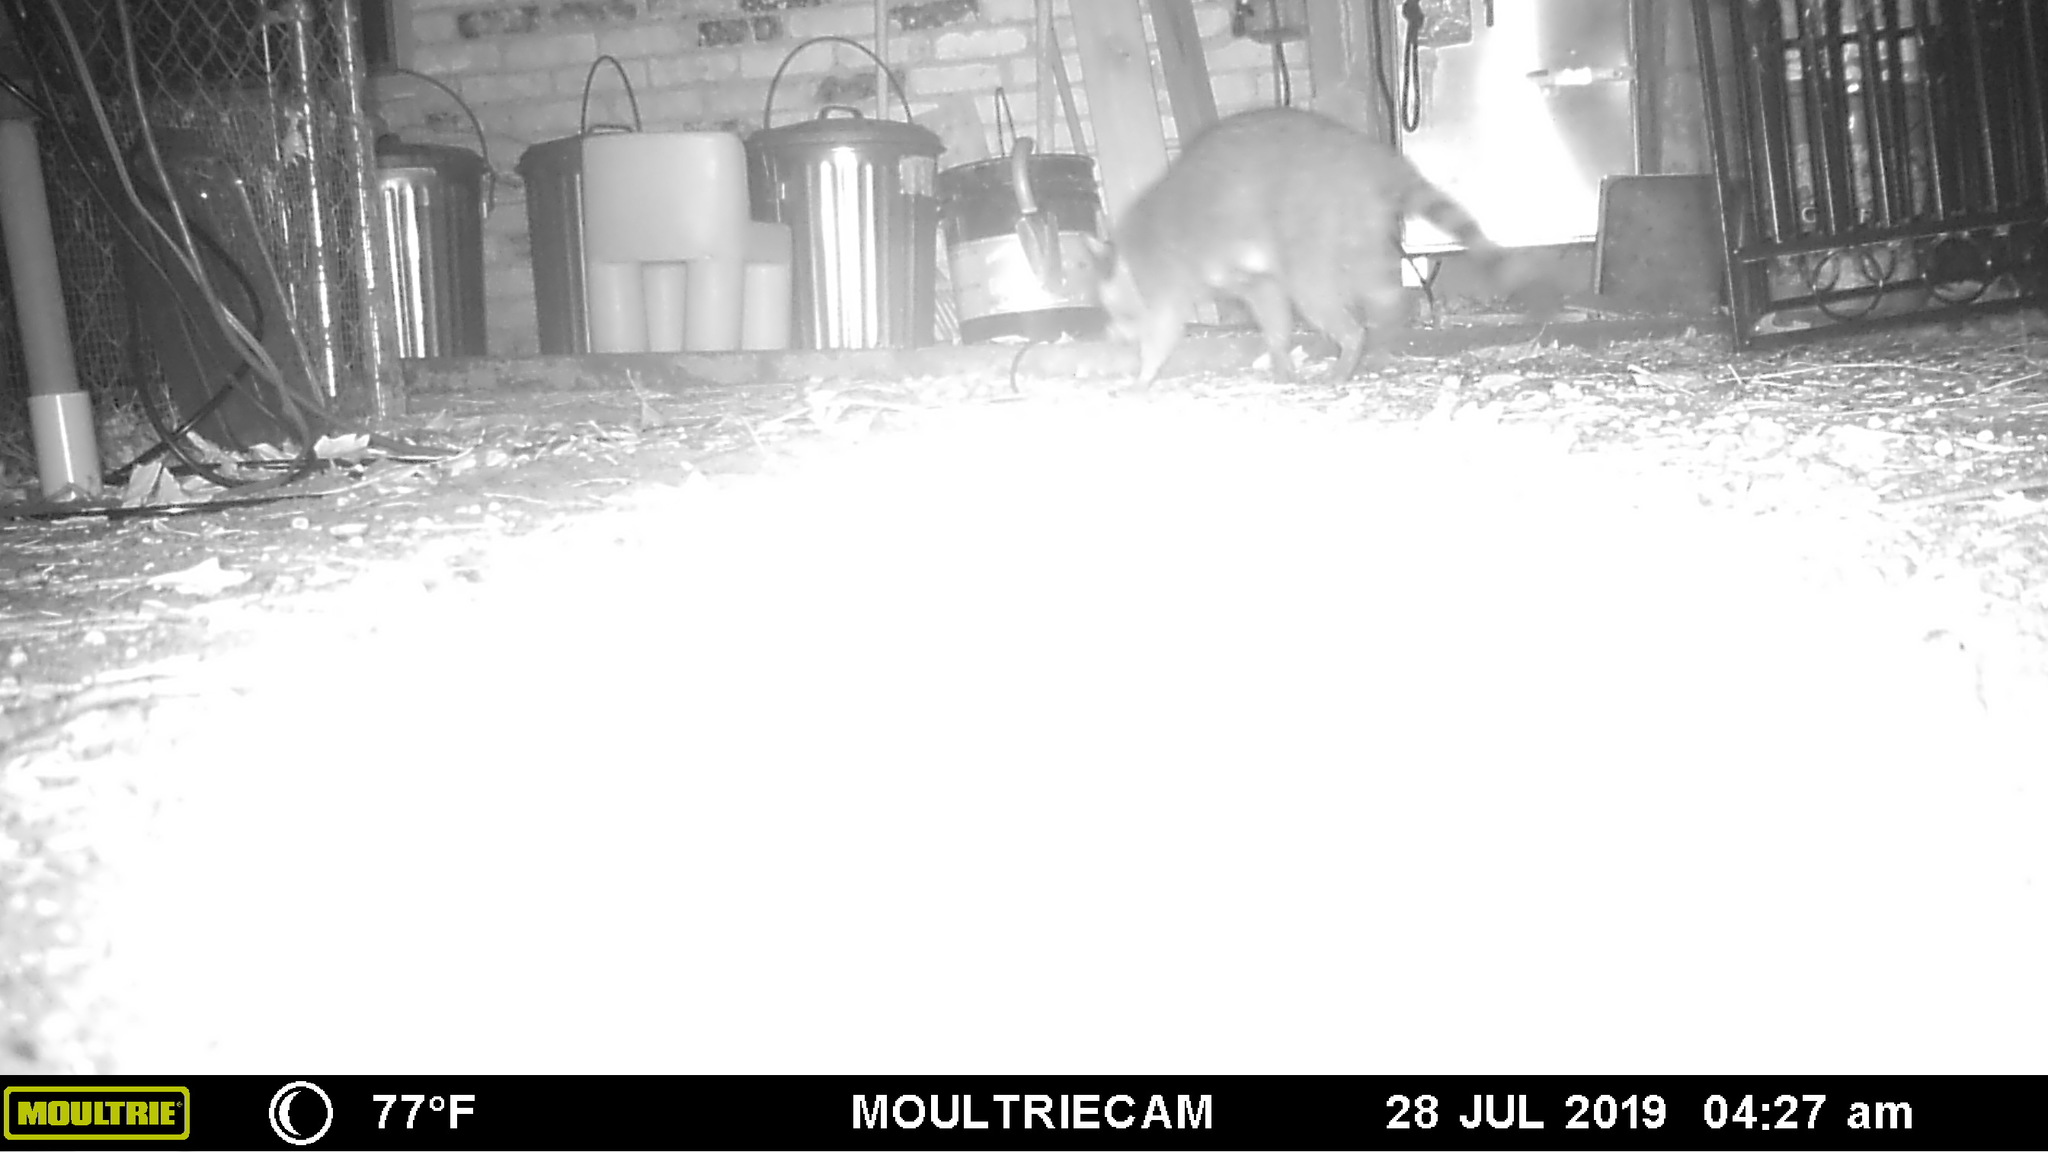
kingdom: Animalia
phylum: Chordata
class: Mammalia
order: Carnivora
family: Procyonidae
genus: Procyon
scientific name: Procyon lotor
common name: Raccoon
